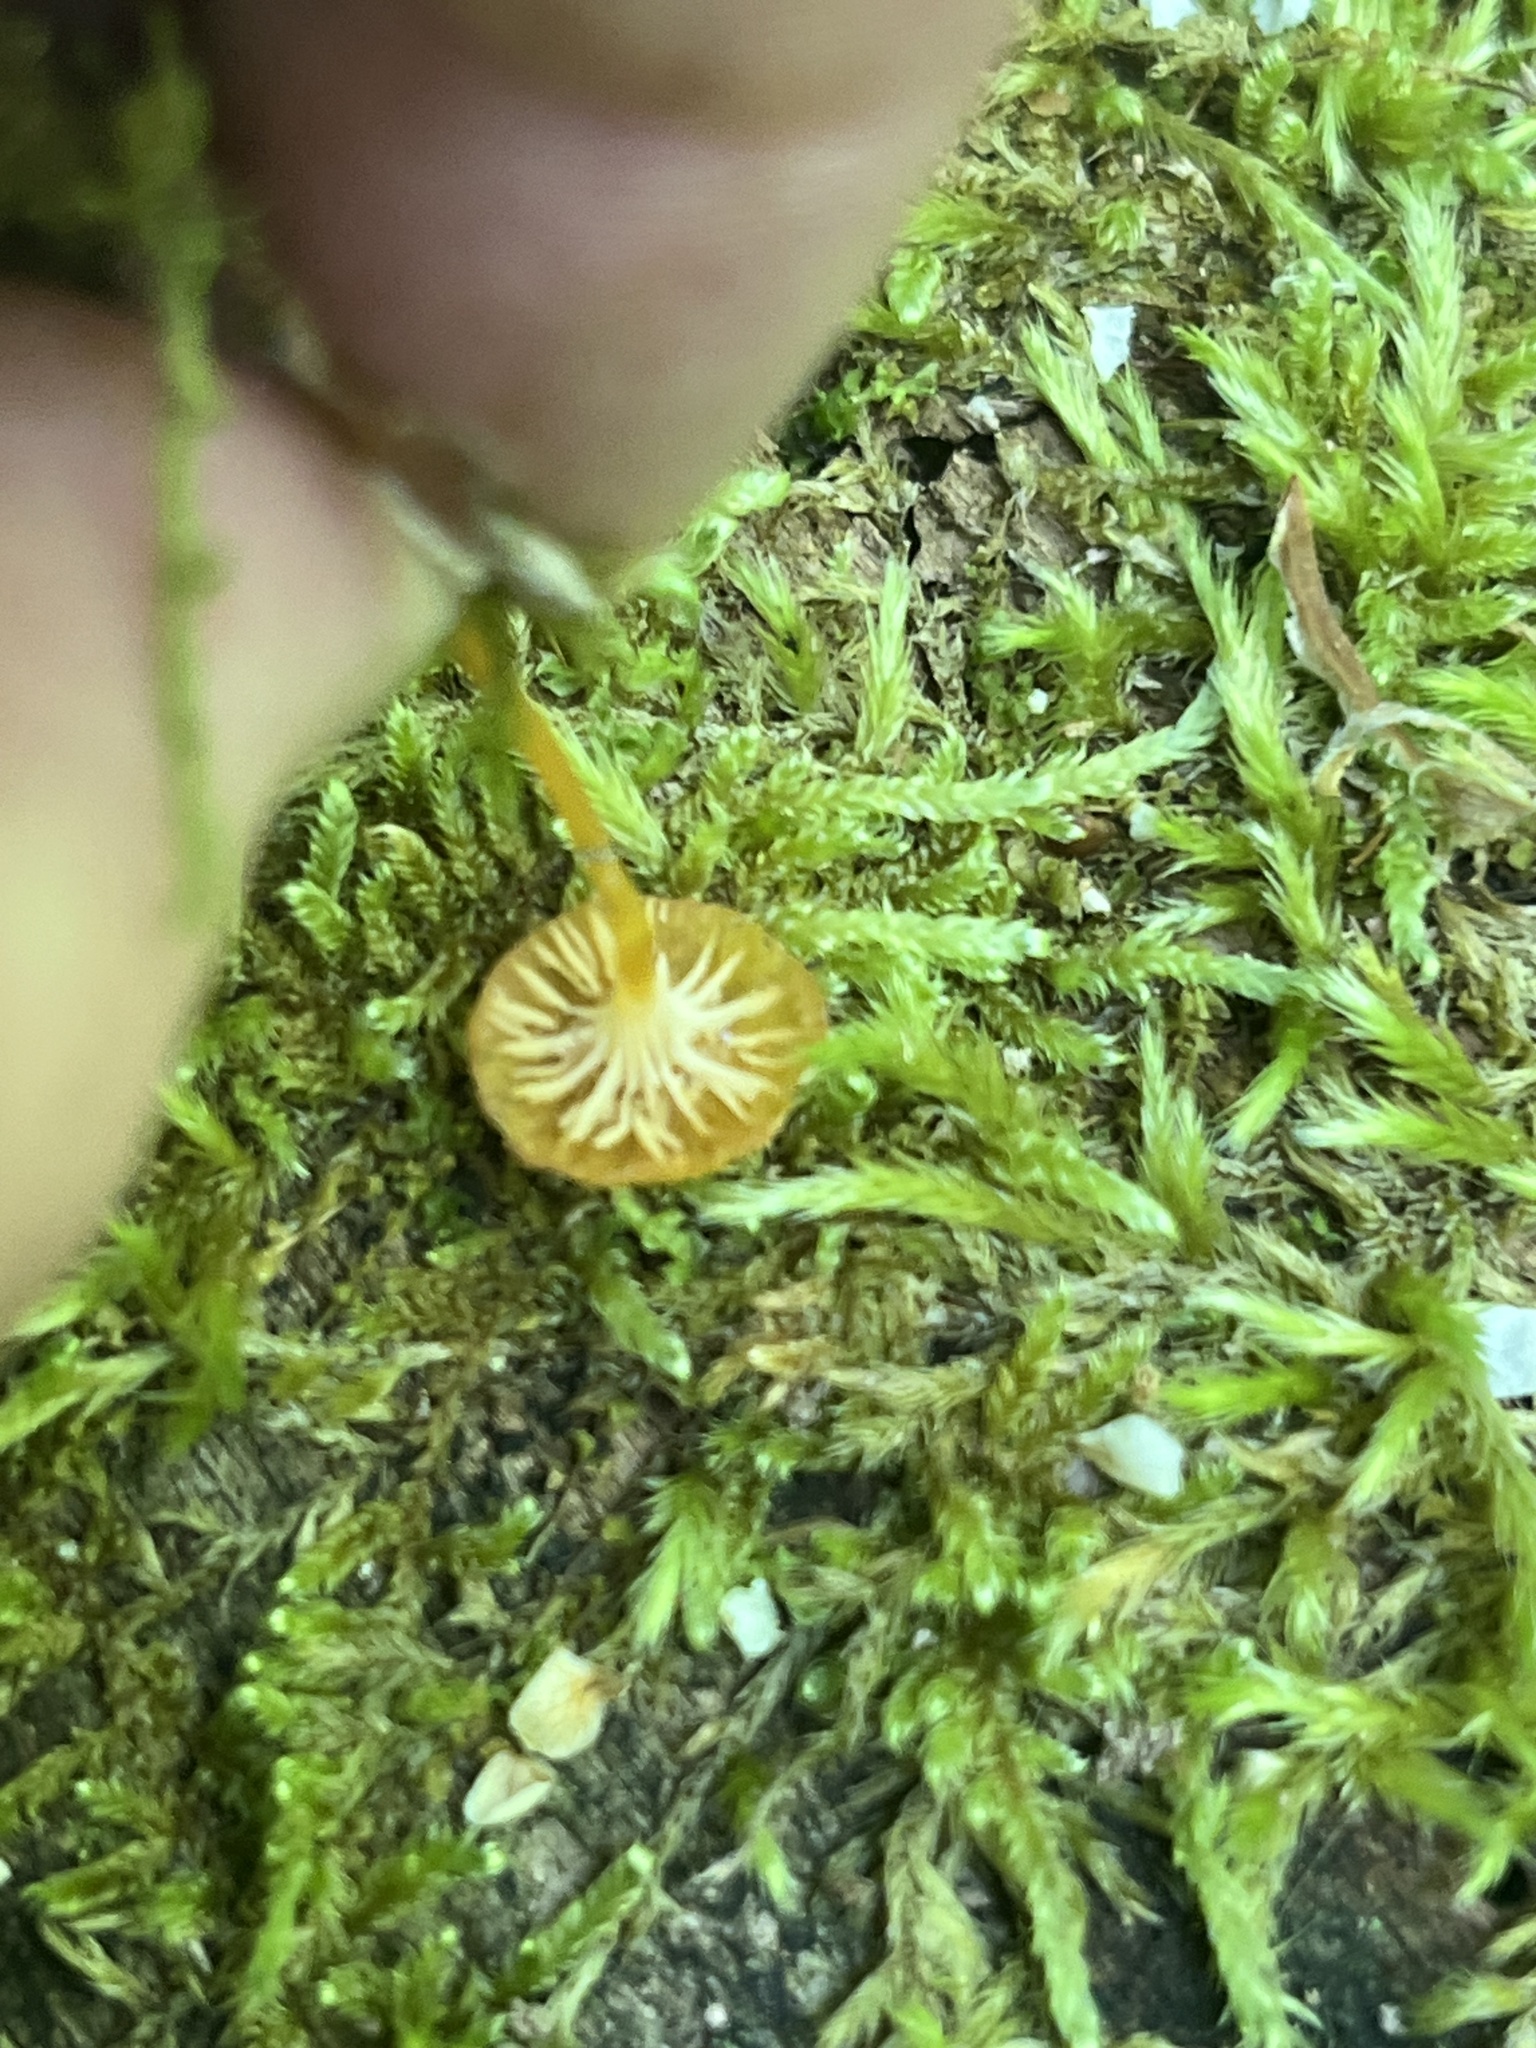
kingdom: Fungi
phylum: Basidiomycota
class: Agaricomycetes
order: Hymenochaetales
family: Rickenellaceae
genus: Rickenella
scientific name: Rickenella fibula
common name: Orange mosscap
